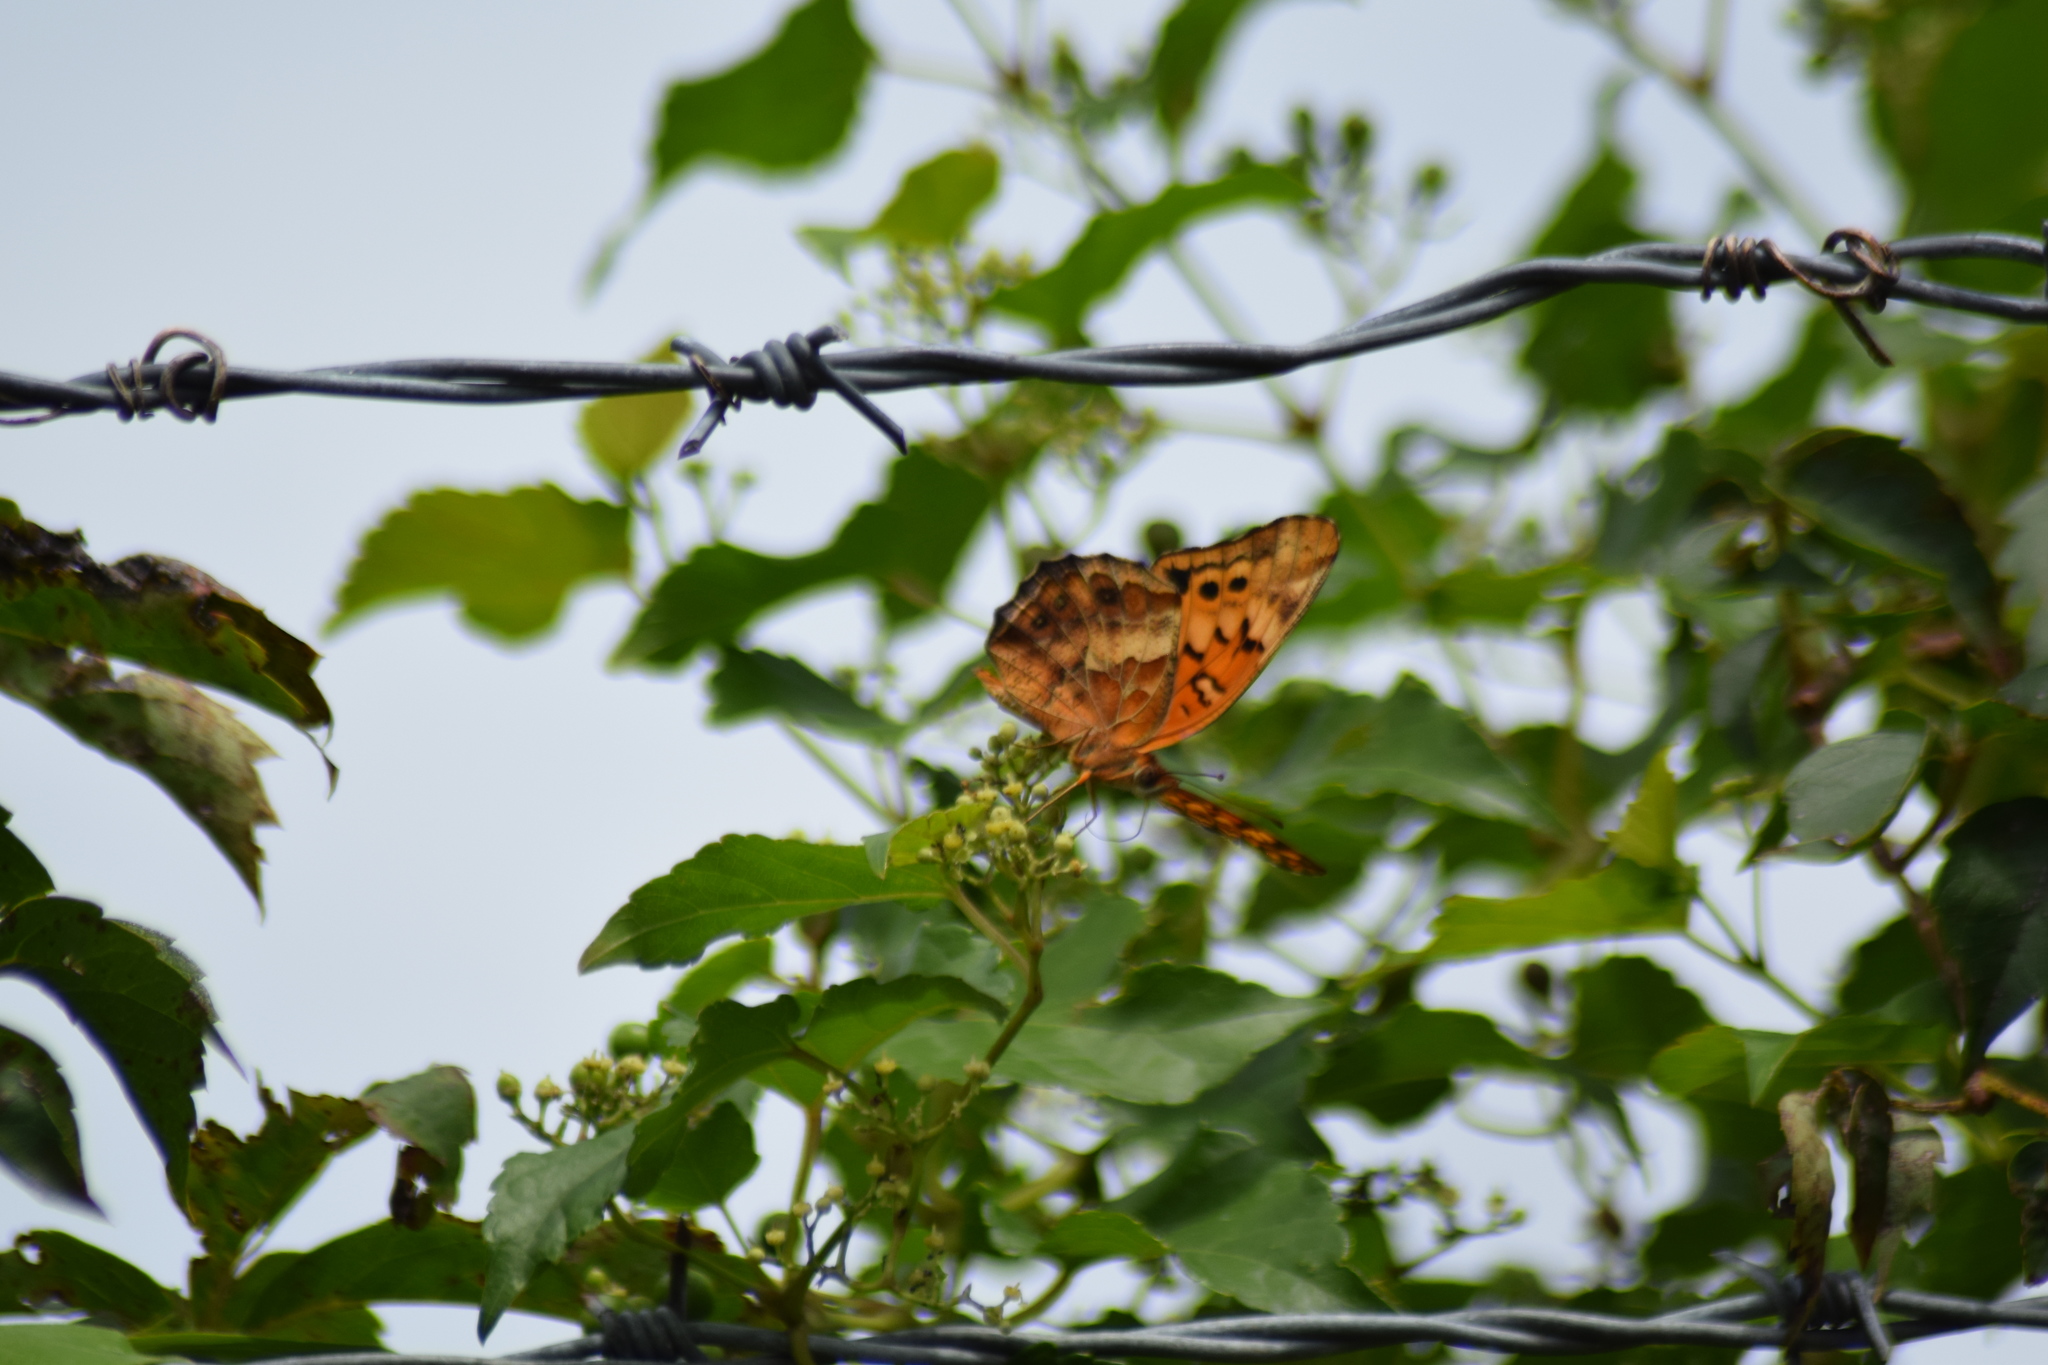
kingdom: Animalia
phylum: Arthropoda
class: Insecta
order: Lepidoptera
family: Nymphalidae
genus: Euptoieta
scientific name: Euptoieta claudia
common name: Variegated fritillary
